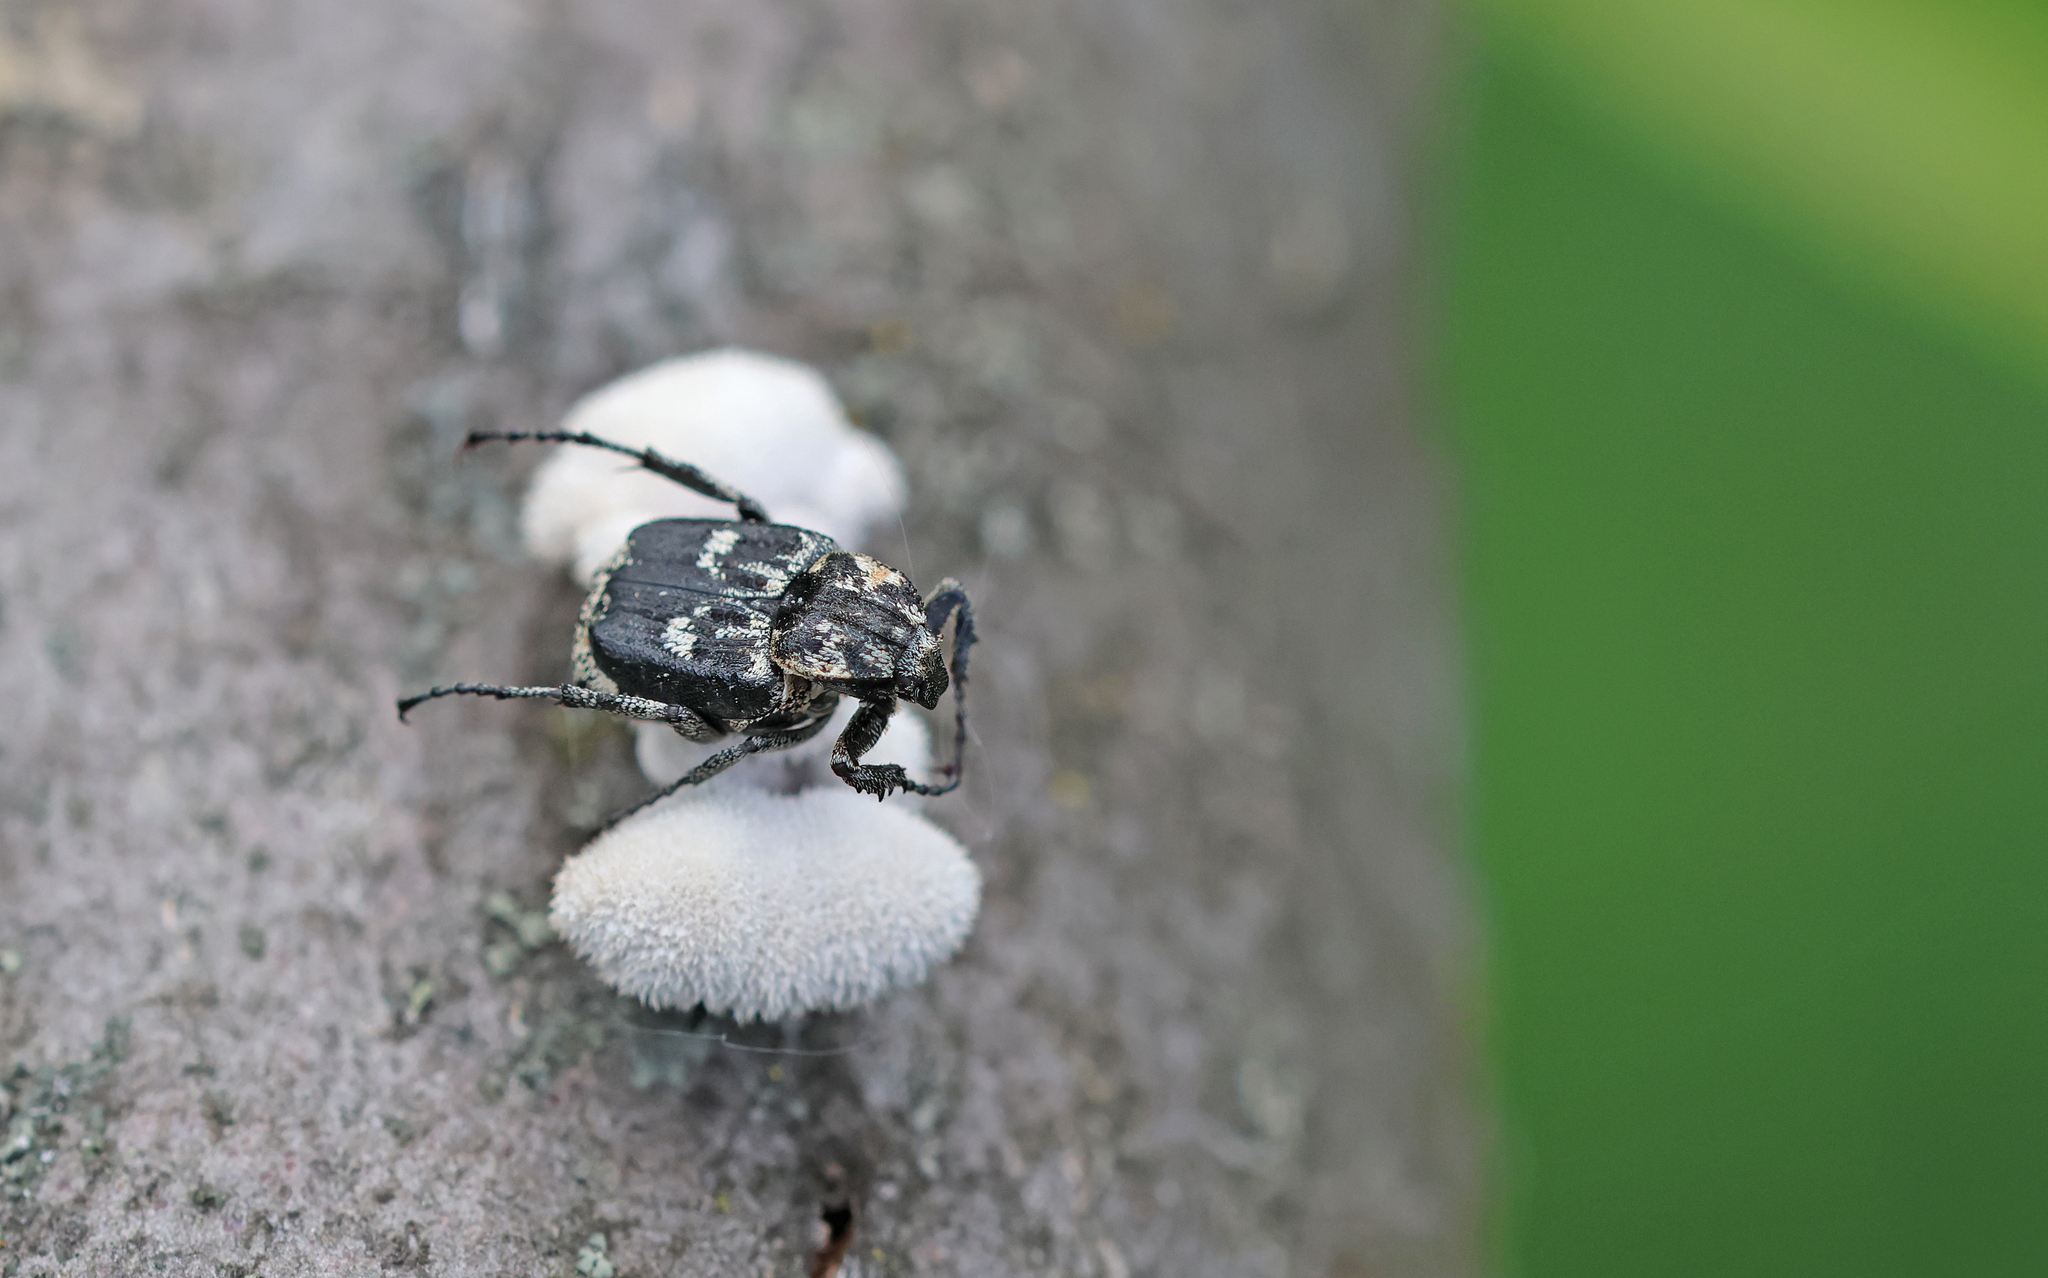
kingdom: Animalia
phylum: Arthropoda
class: Insecta
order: Coleoptera
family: Scarabaeidae
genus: Valgus
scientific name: Valgus hemipterus
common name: Bug flower chafer
